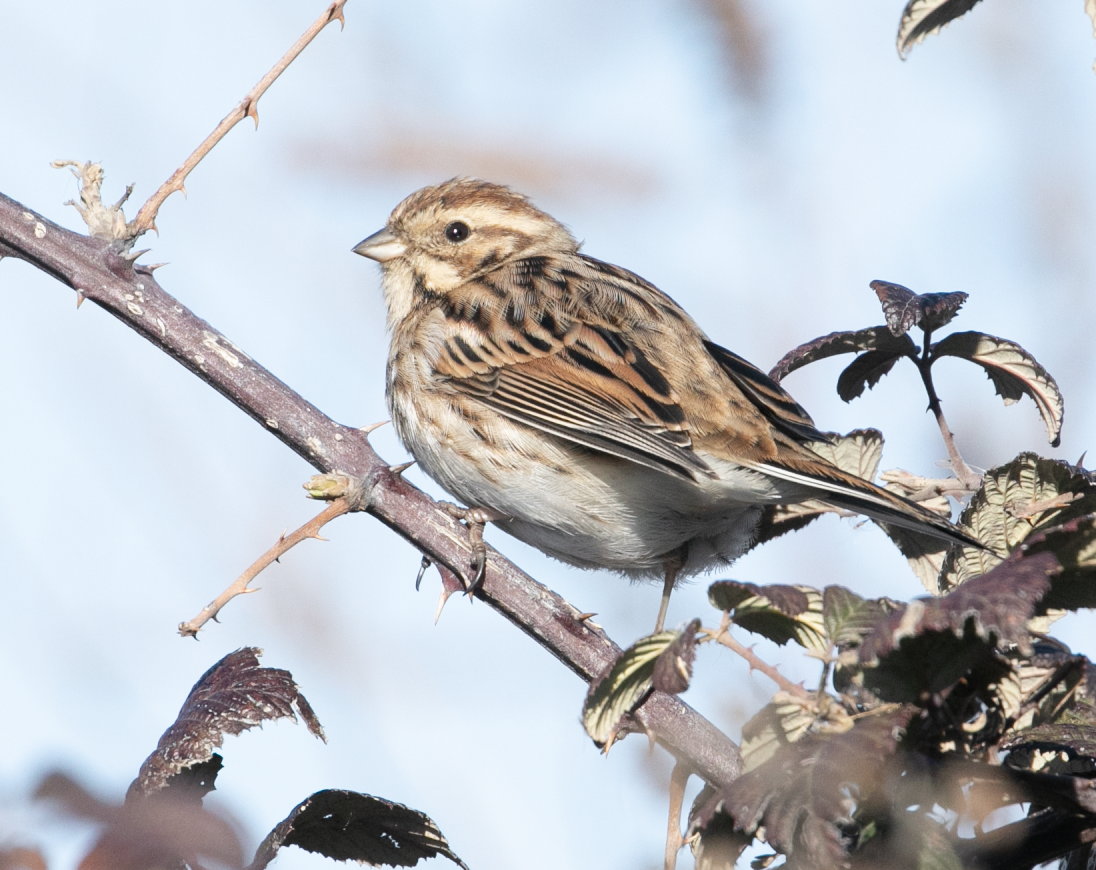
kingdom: Animalia
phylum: Chordata
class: Aves
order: Passeriformes
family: Emberizidae
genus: Emberiza
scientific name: Emberiza schoeniclus
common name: Reed bunting
